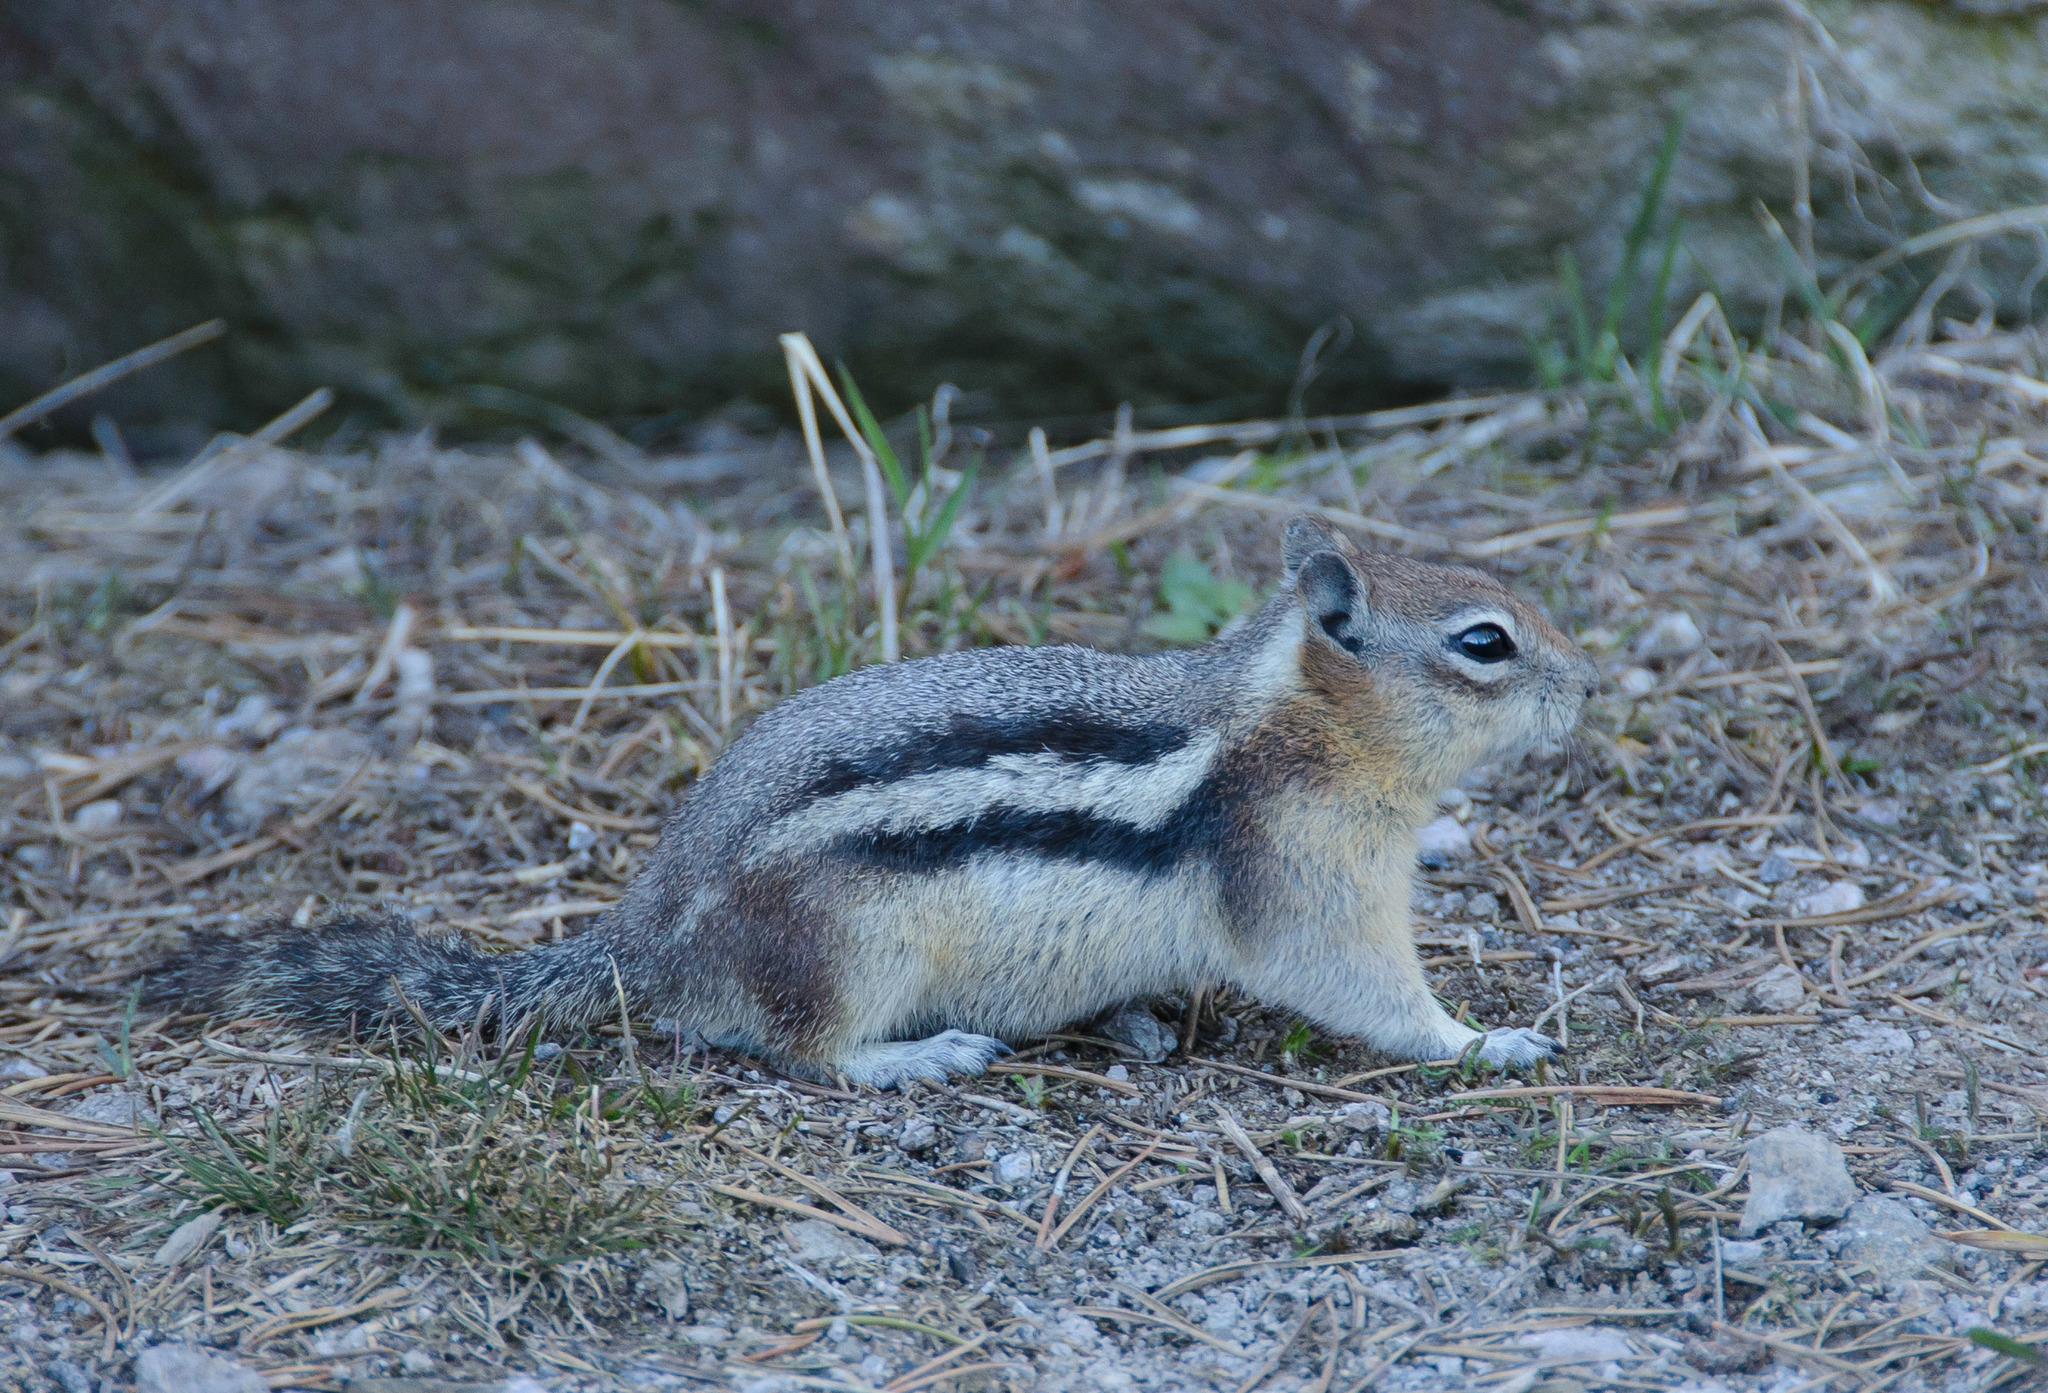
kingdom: Animalia
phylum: Chordata
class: Mammalia
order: Rodentia
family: Sciuridae
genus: Callospermophilus
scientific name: Callospermophilus lateralis
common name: Golden-mantled ground squirrel
